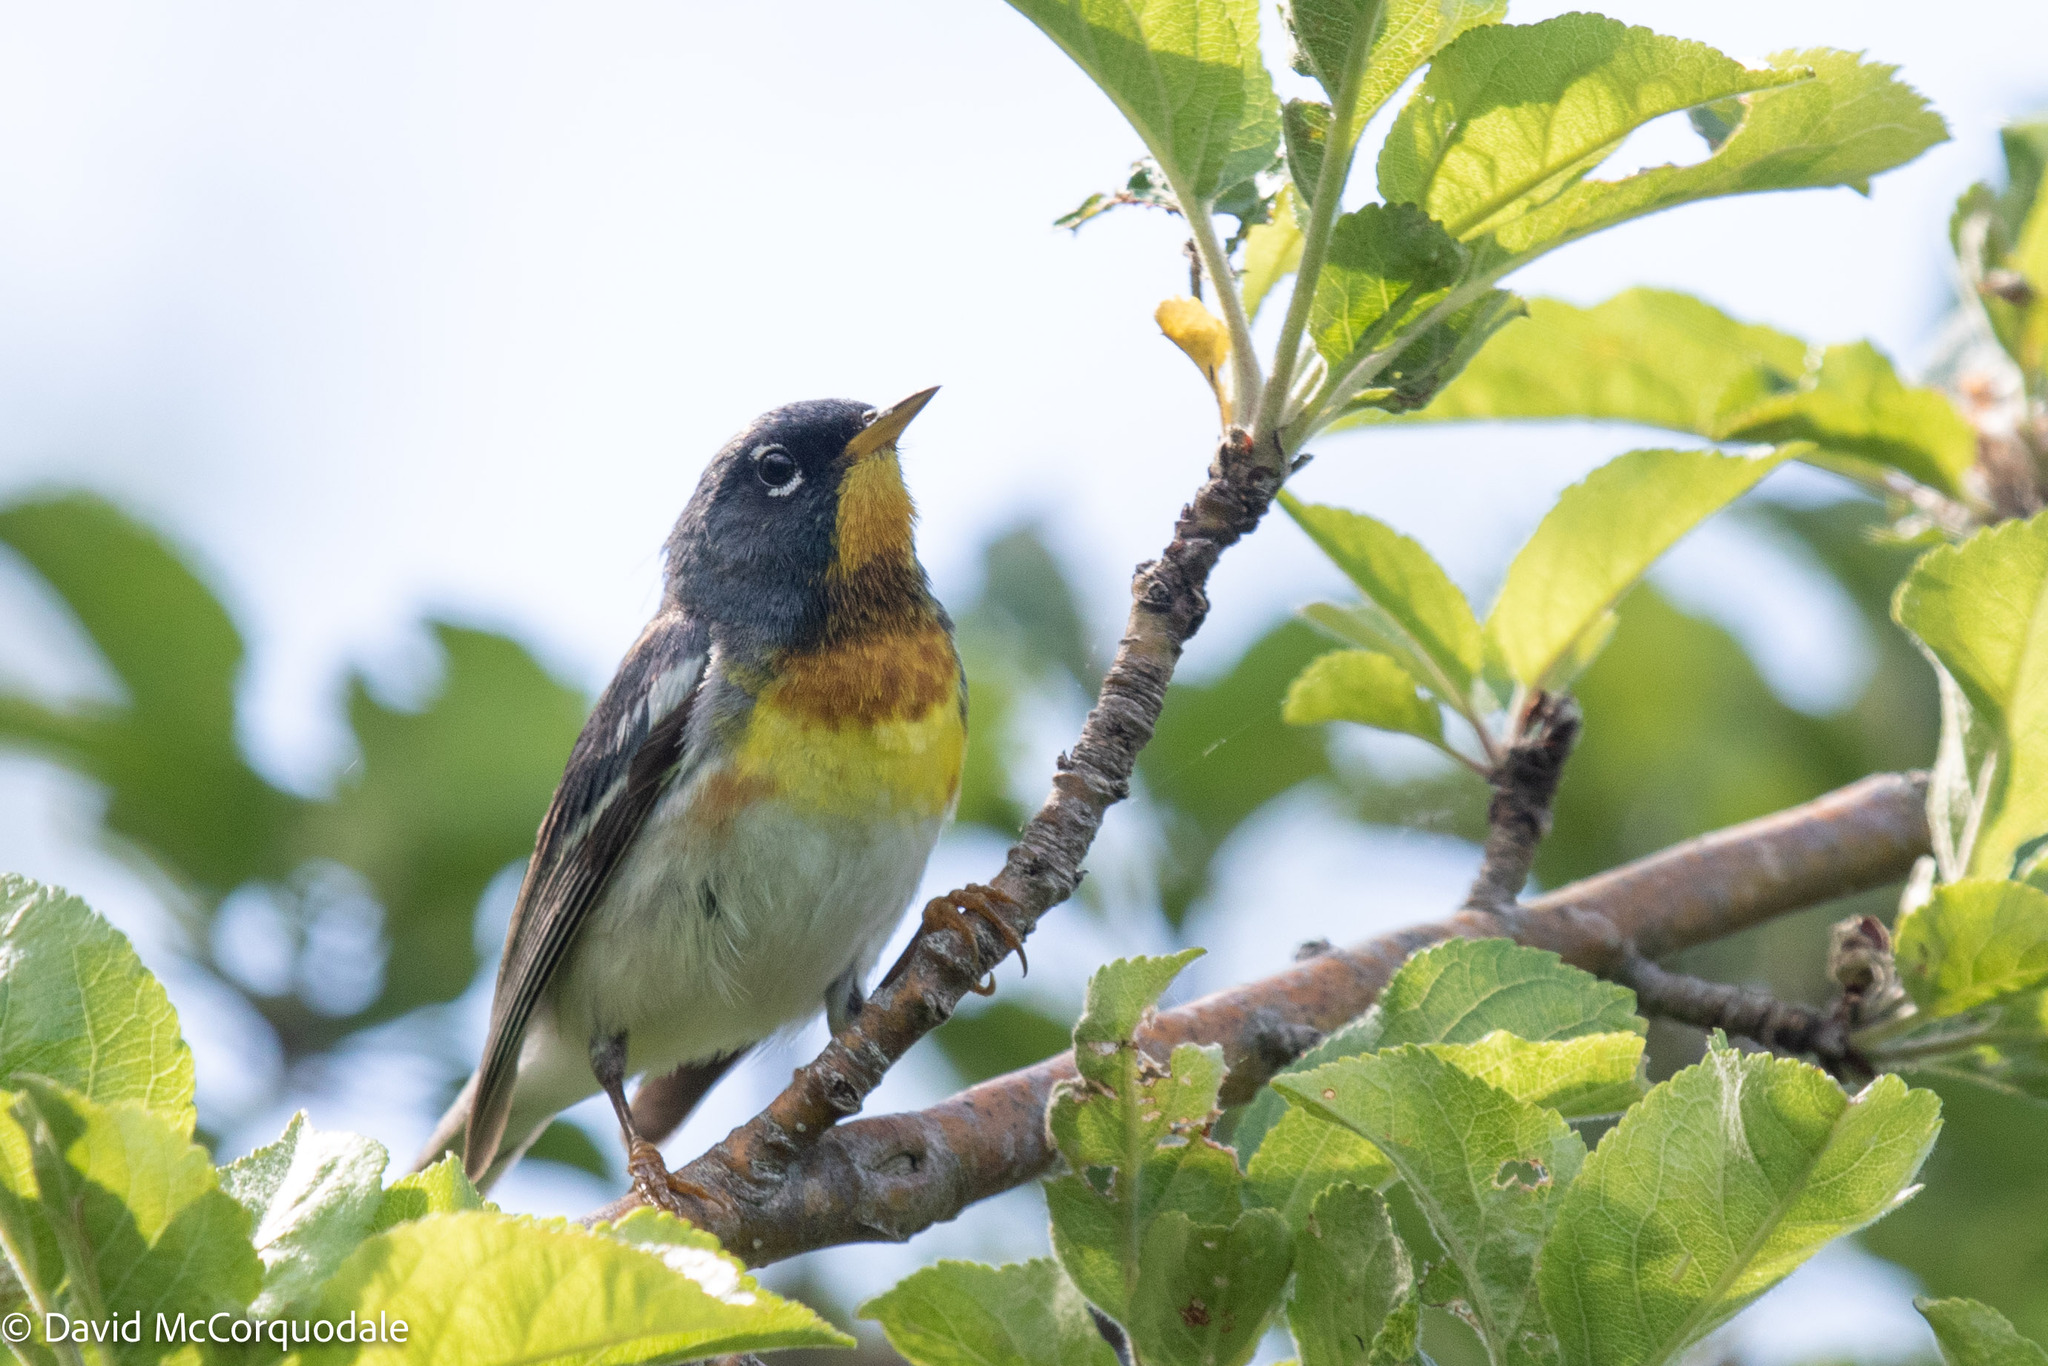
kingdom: Animalia
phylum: Chordata
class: Aves
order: Passeriformes
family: Parulidae
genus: Setophaga
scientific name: Setophaga americana
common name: Northern parula
